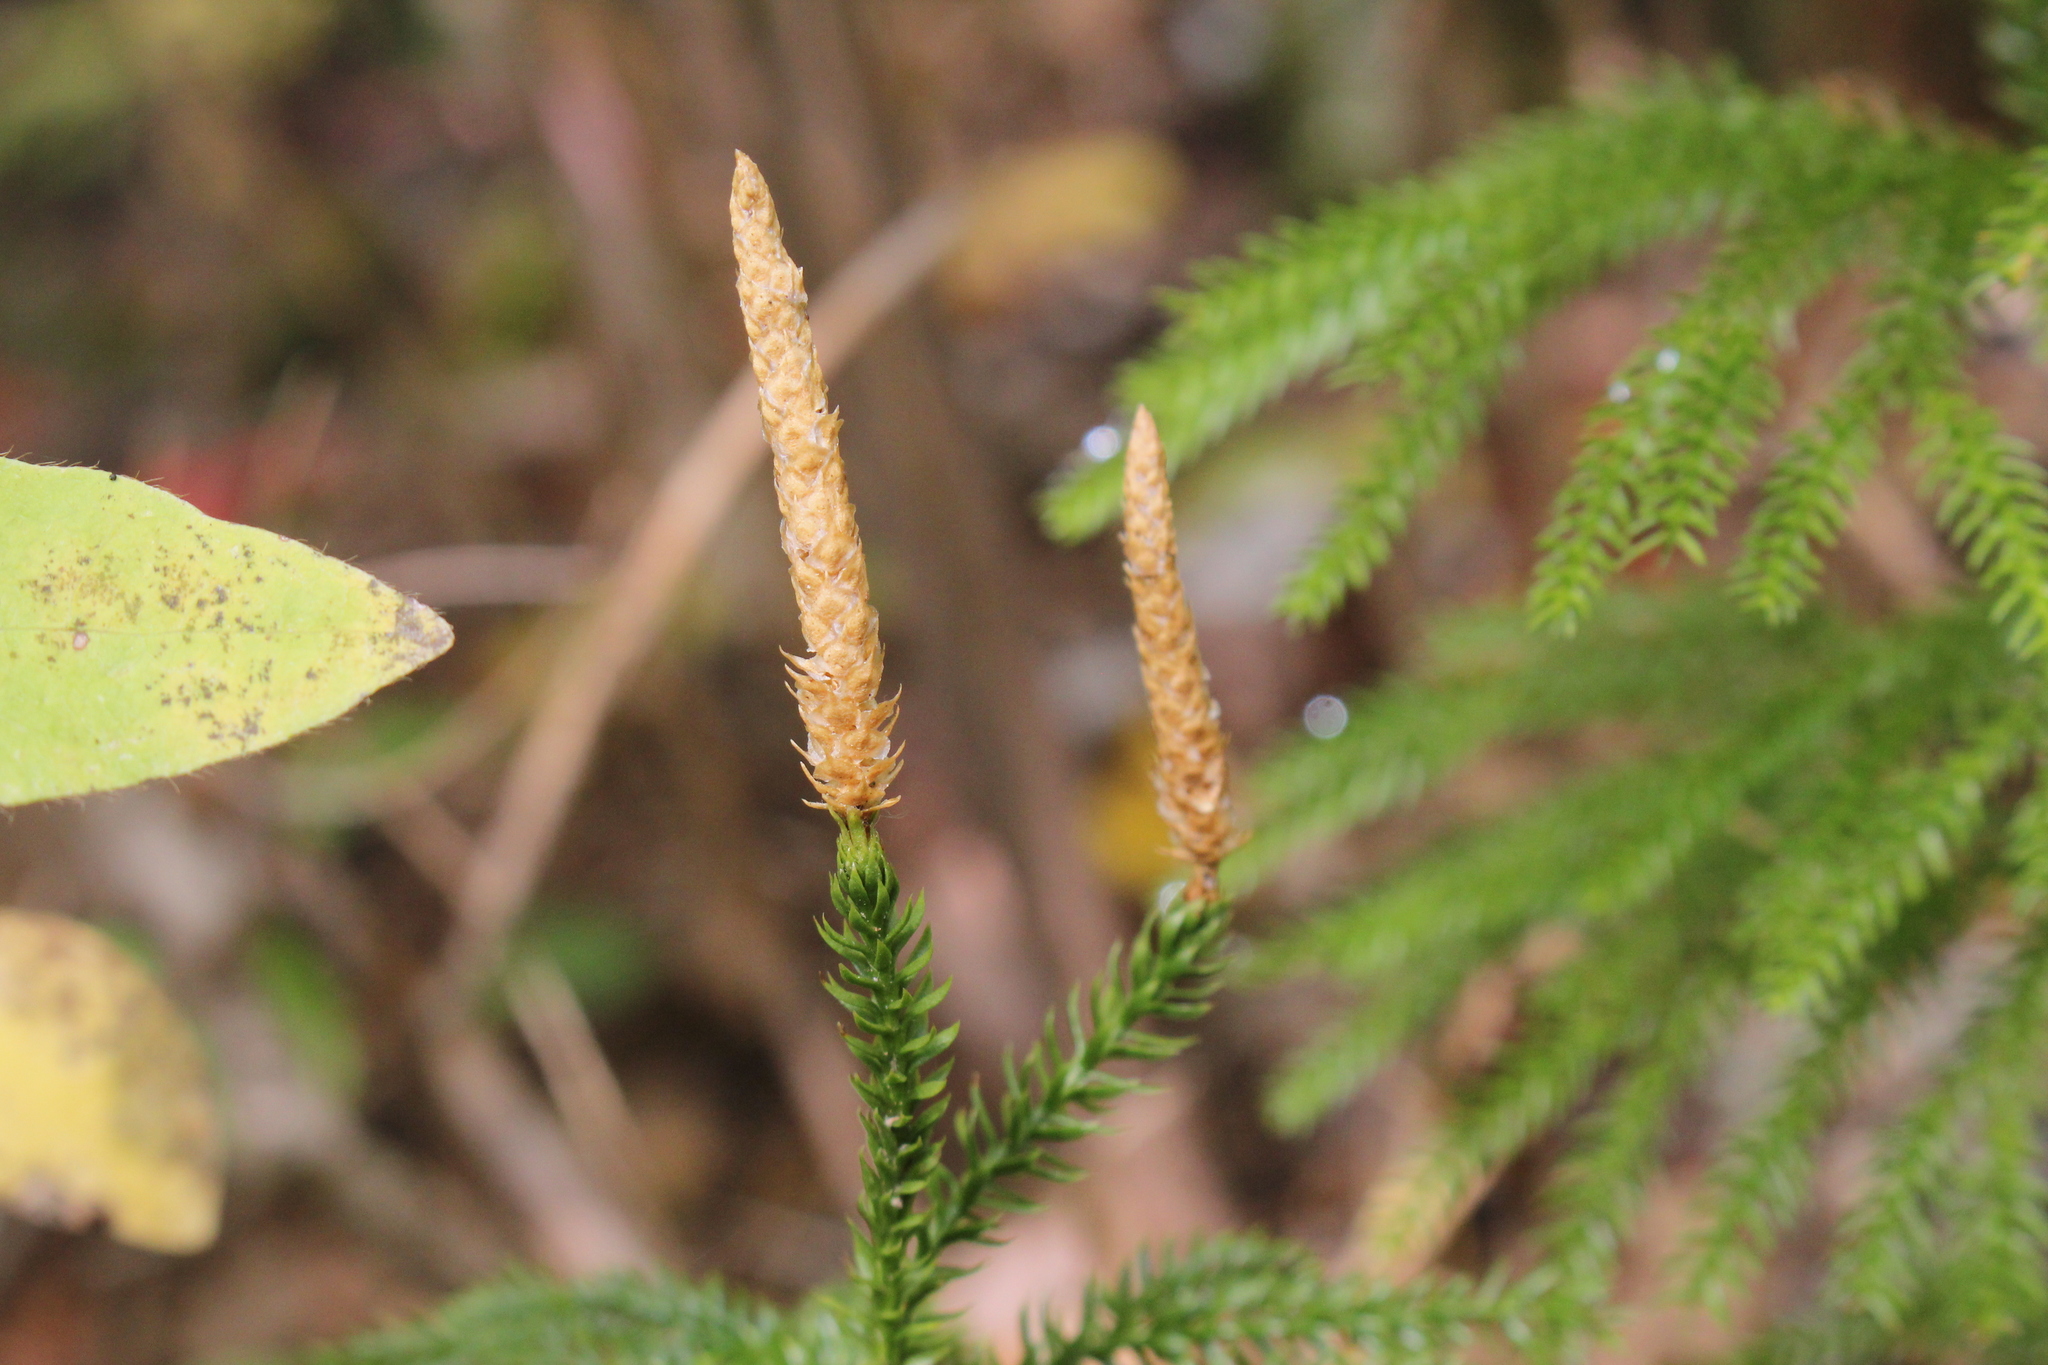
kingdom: Plantae
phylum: Tracheophyta
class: Lycopodiopsida
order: Lycopodiales
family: Lycopodiaceae
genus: Dendrolycopodium
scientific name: Dendrolycopodium dendroideum
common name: Northern tree-clubmoss
